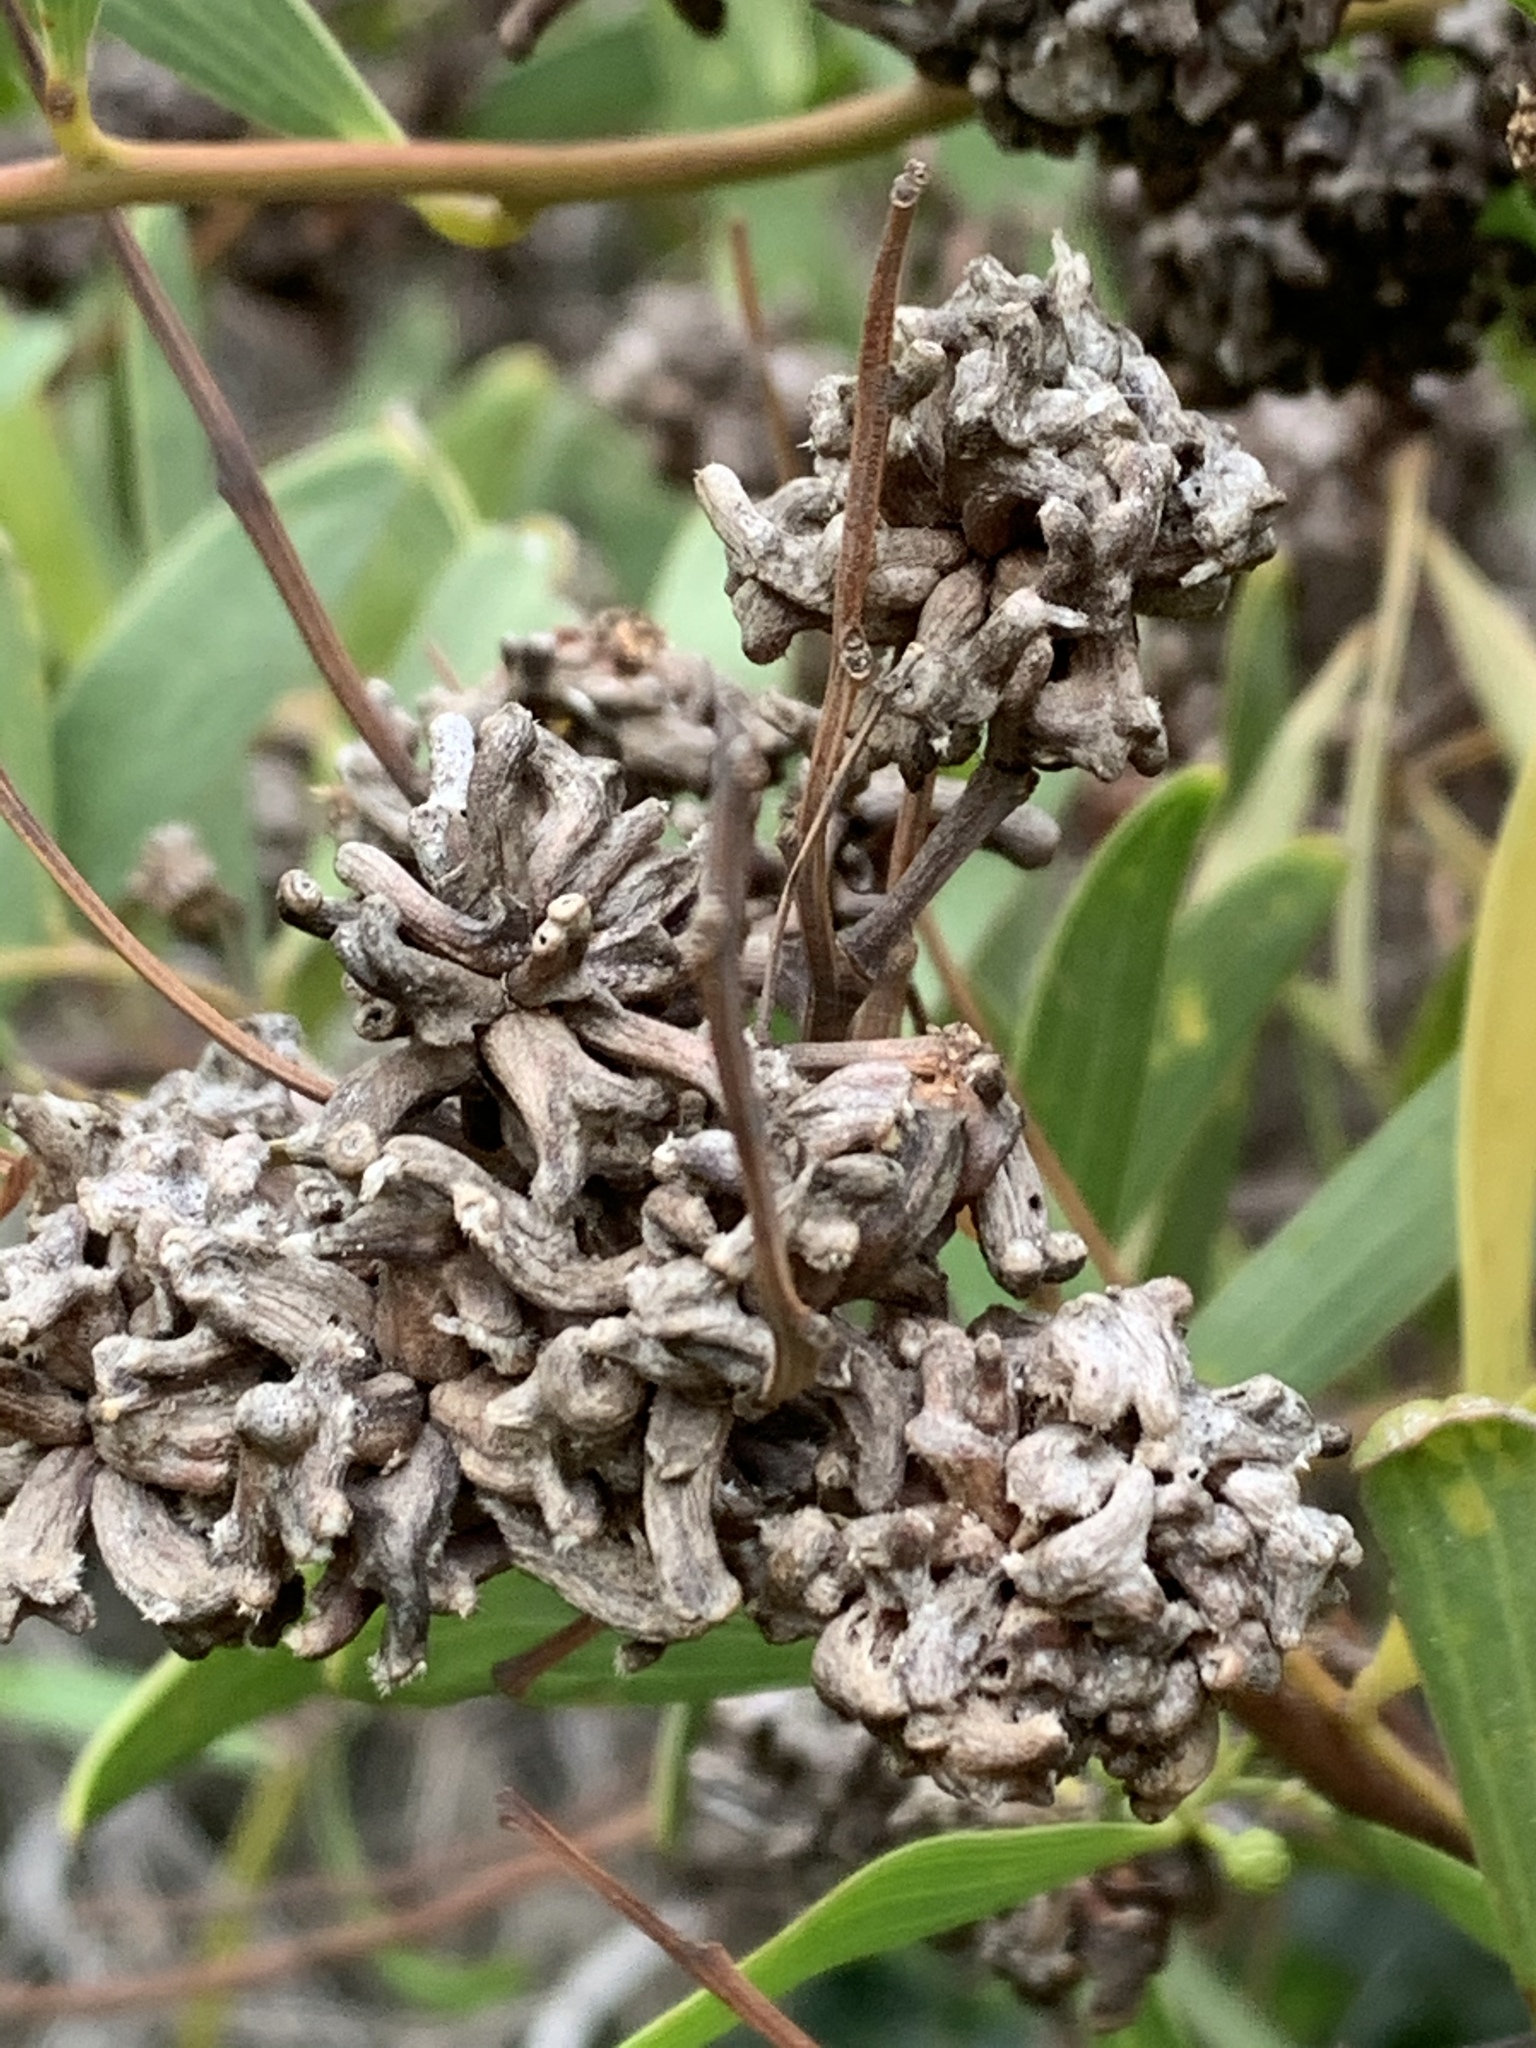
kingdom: Animalia
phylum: Arthropoda
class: Insecta
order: Diptera
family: Cecidomyiidae
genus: Dasineura
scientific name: Dasineura dielsi
